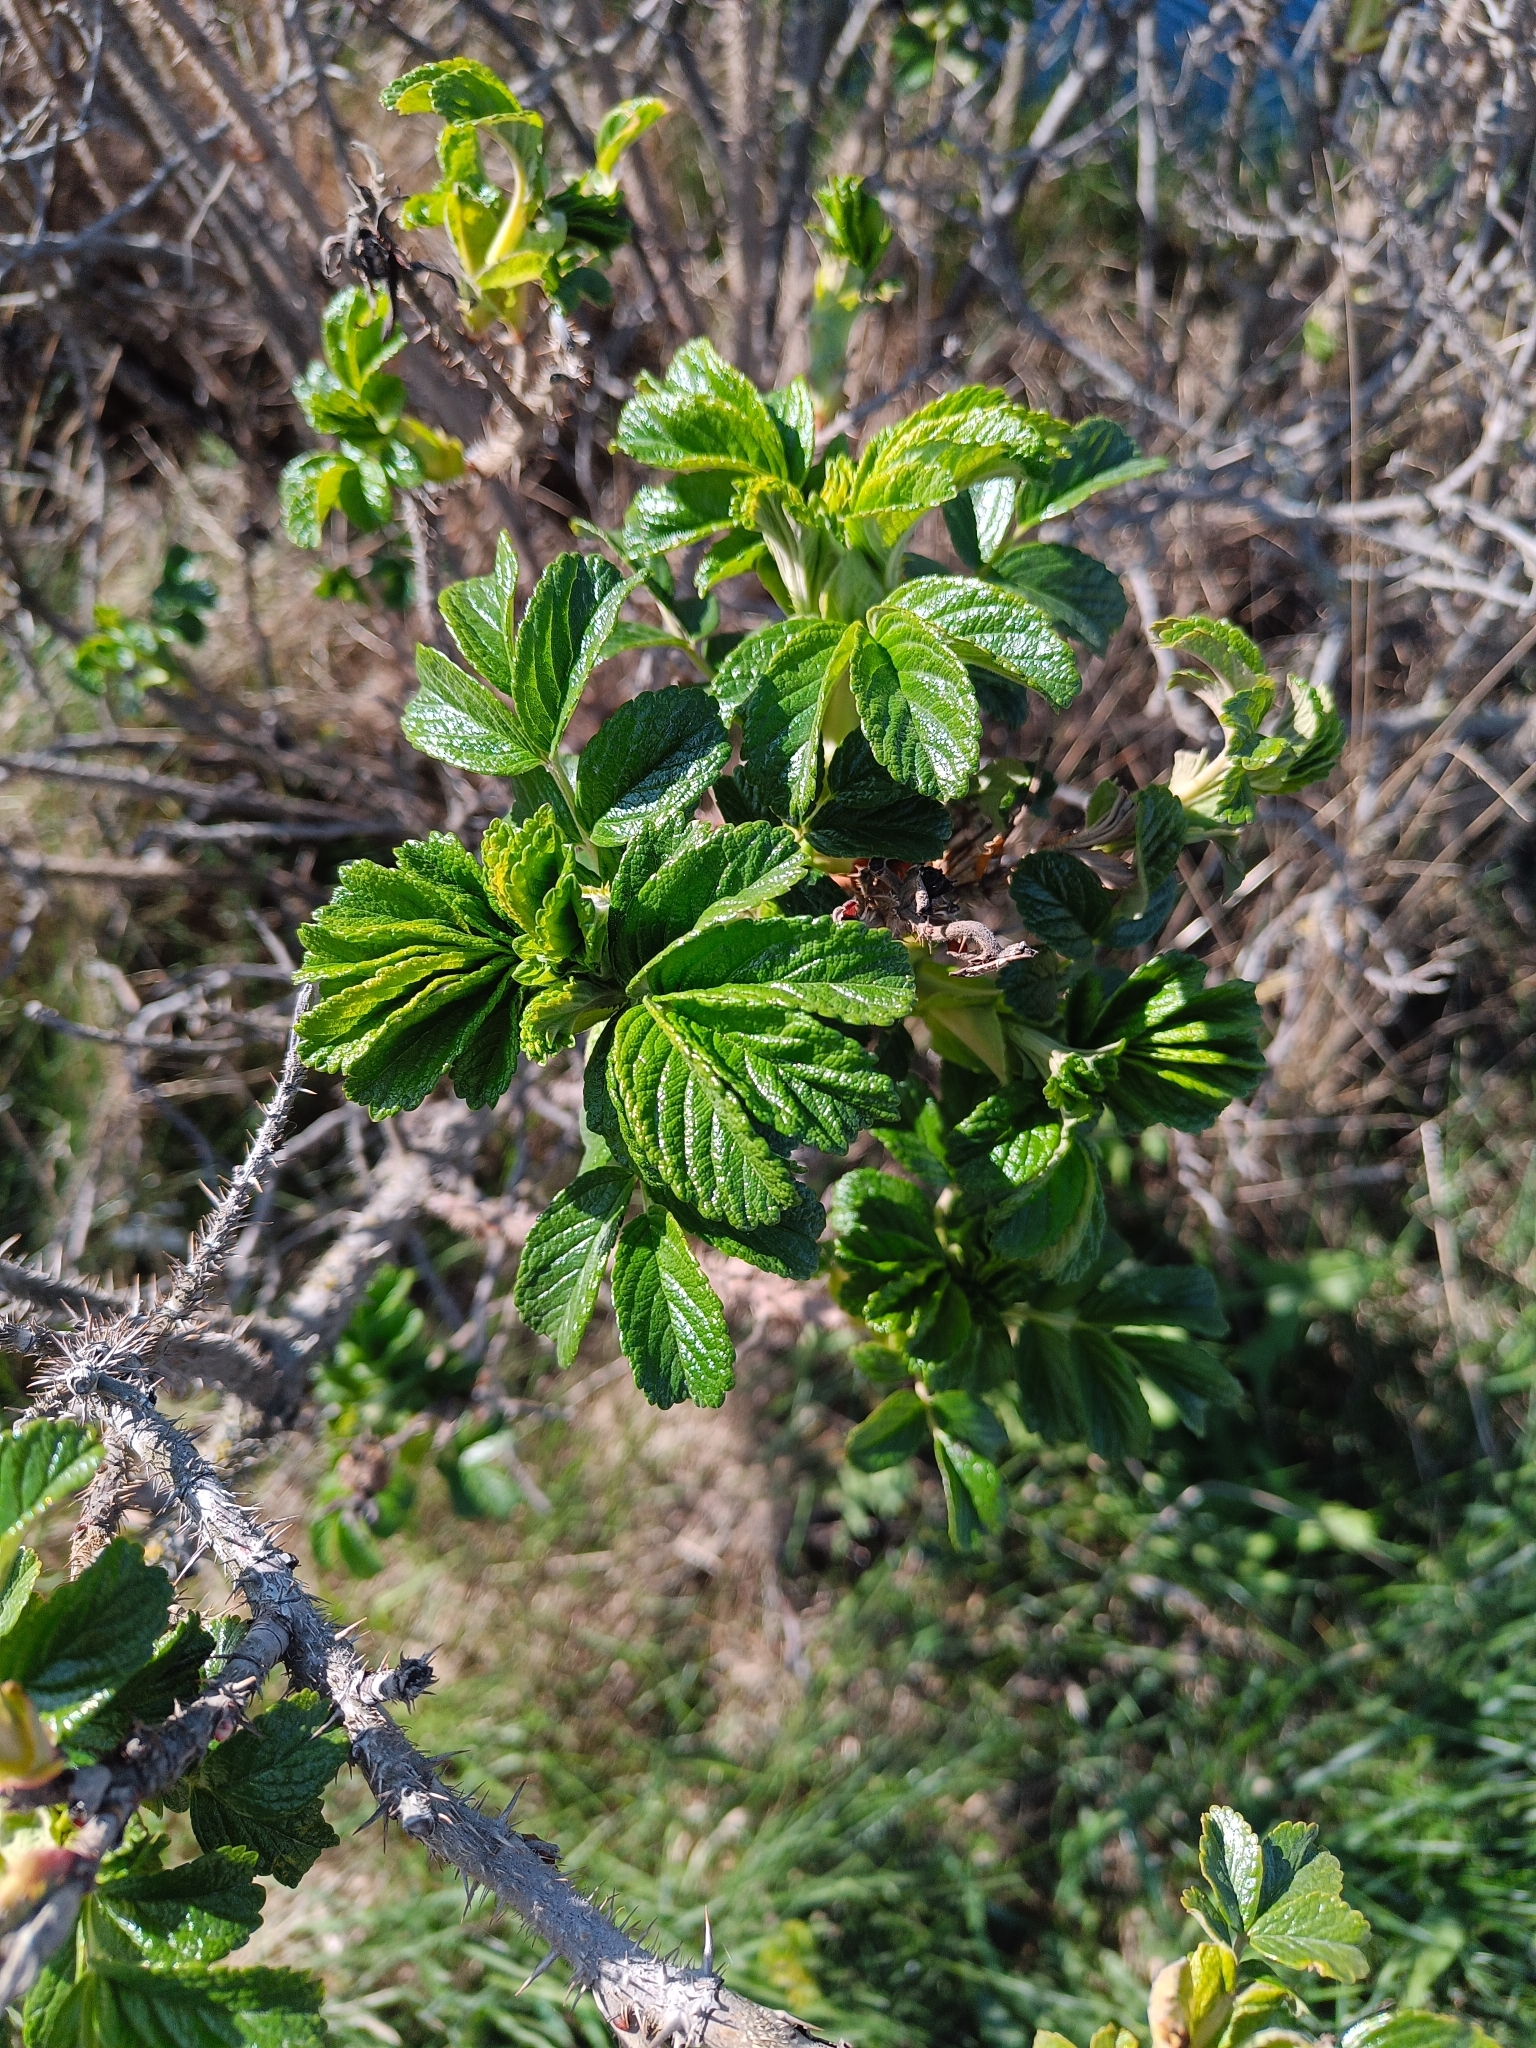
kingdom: Plantae
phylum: Tracheophyta
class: Magnoliopsida
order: Rosales
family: Rosaceae
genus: Rosa
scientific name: Rosa rugosa
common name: Japanese rose
